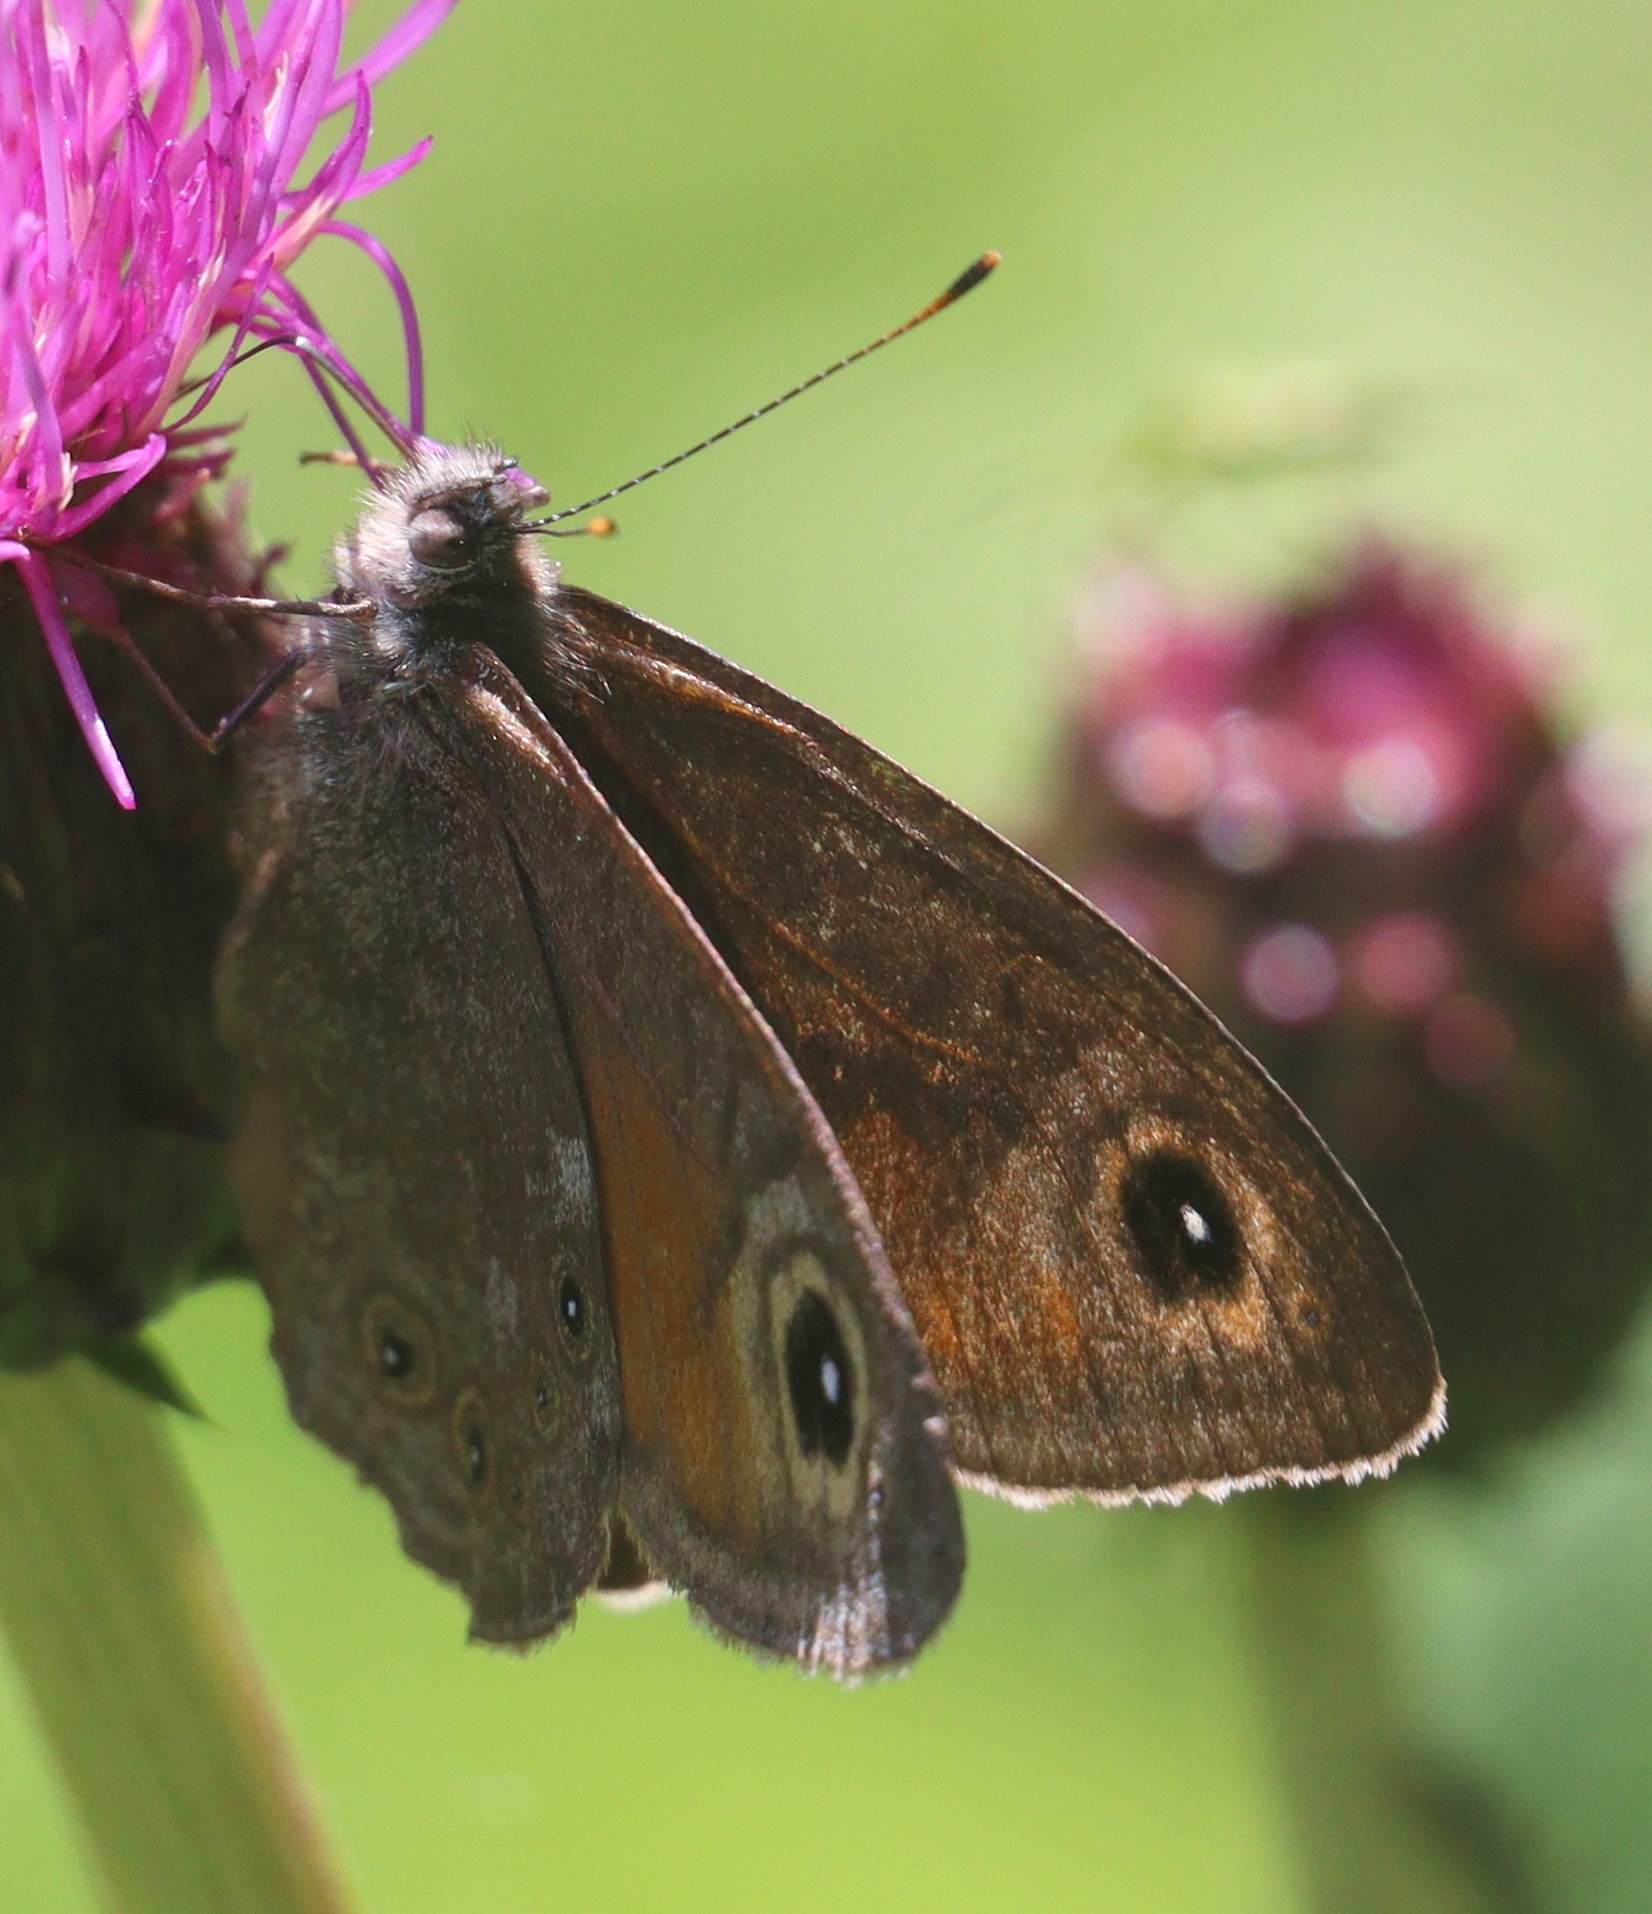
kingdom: Animalia
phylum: Arthropoda
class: Insecta
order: Lepidoptera
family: Nymphalidae
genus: Pararge
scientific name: Pararge Lasiommata maera
